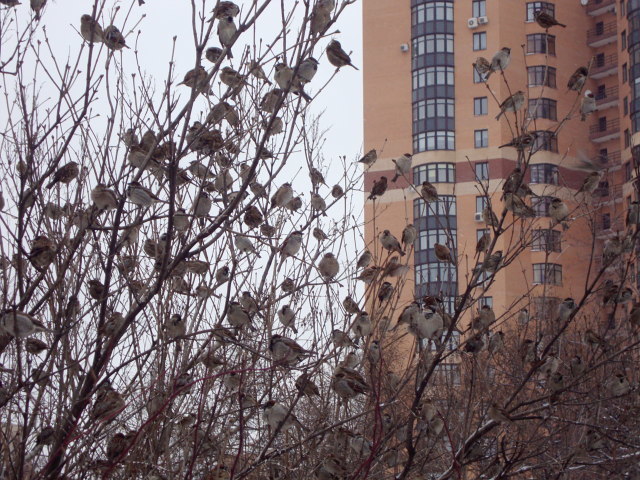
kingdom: Animalia
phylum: Chordata
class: Aves
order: Passeriformes
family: Passeridae
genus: Passer
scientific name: Passer domesticus
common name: House sparrow
